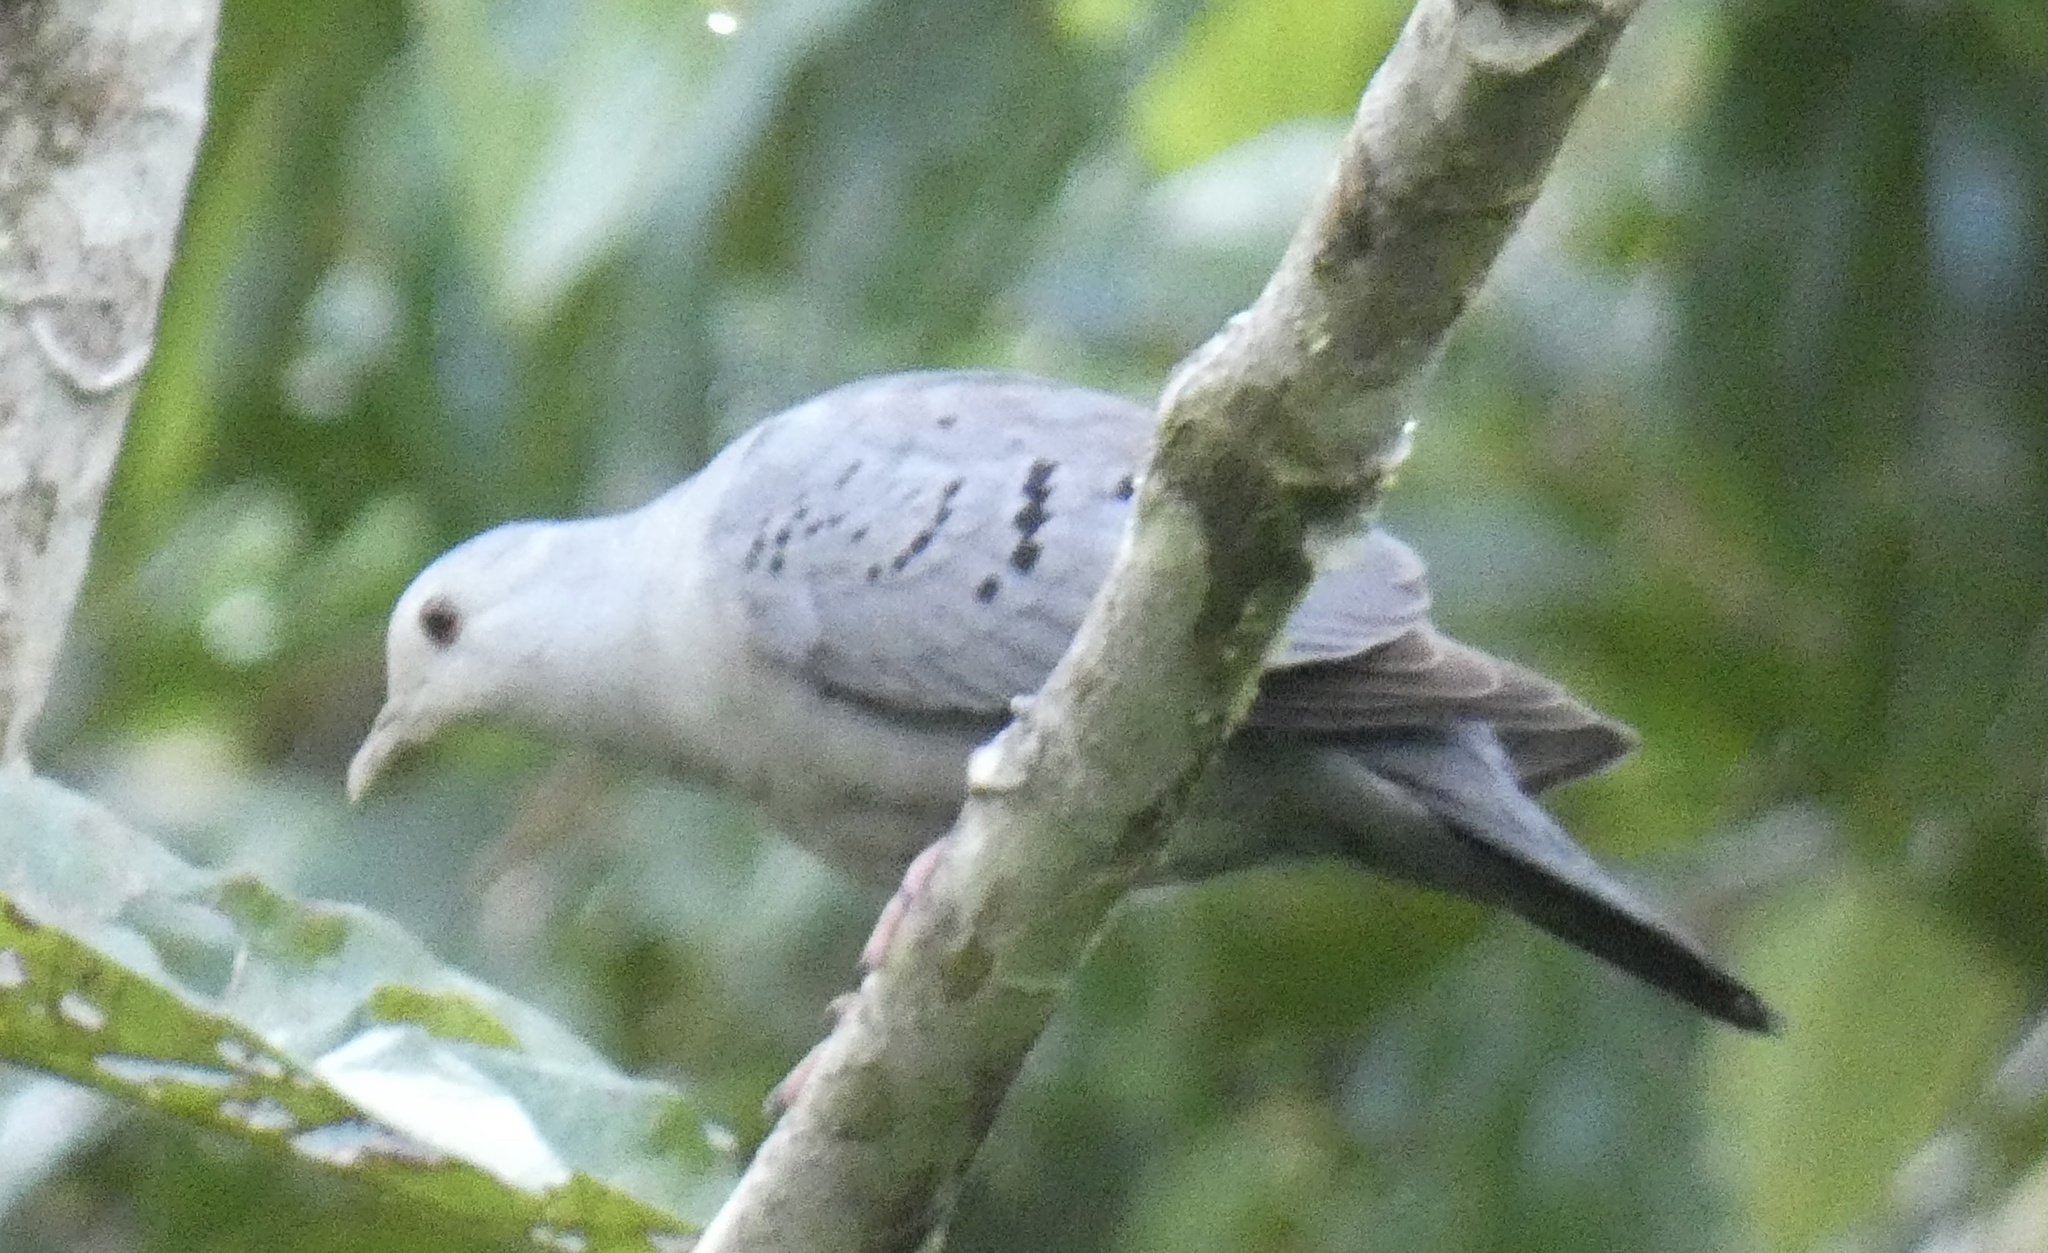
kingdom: Animalia
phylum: Chordata
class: Aves
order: Columbiformes
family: Columbidae
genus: Claravis
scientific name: Claravis pretiosa
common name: Blue ground-dove
